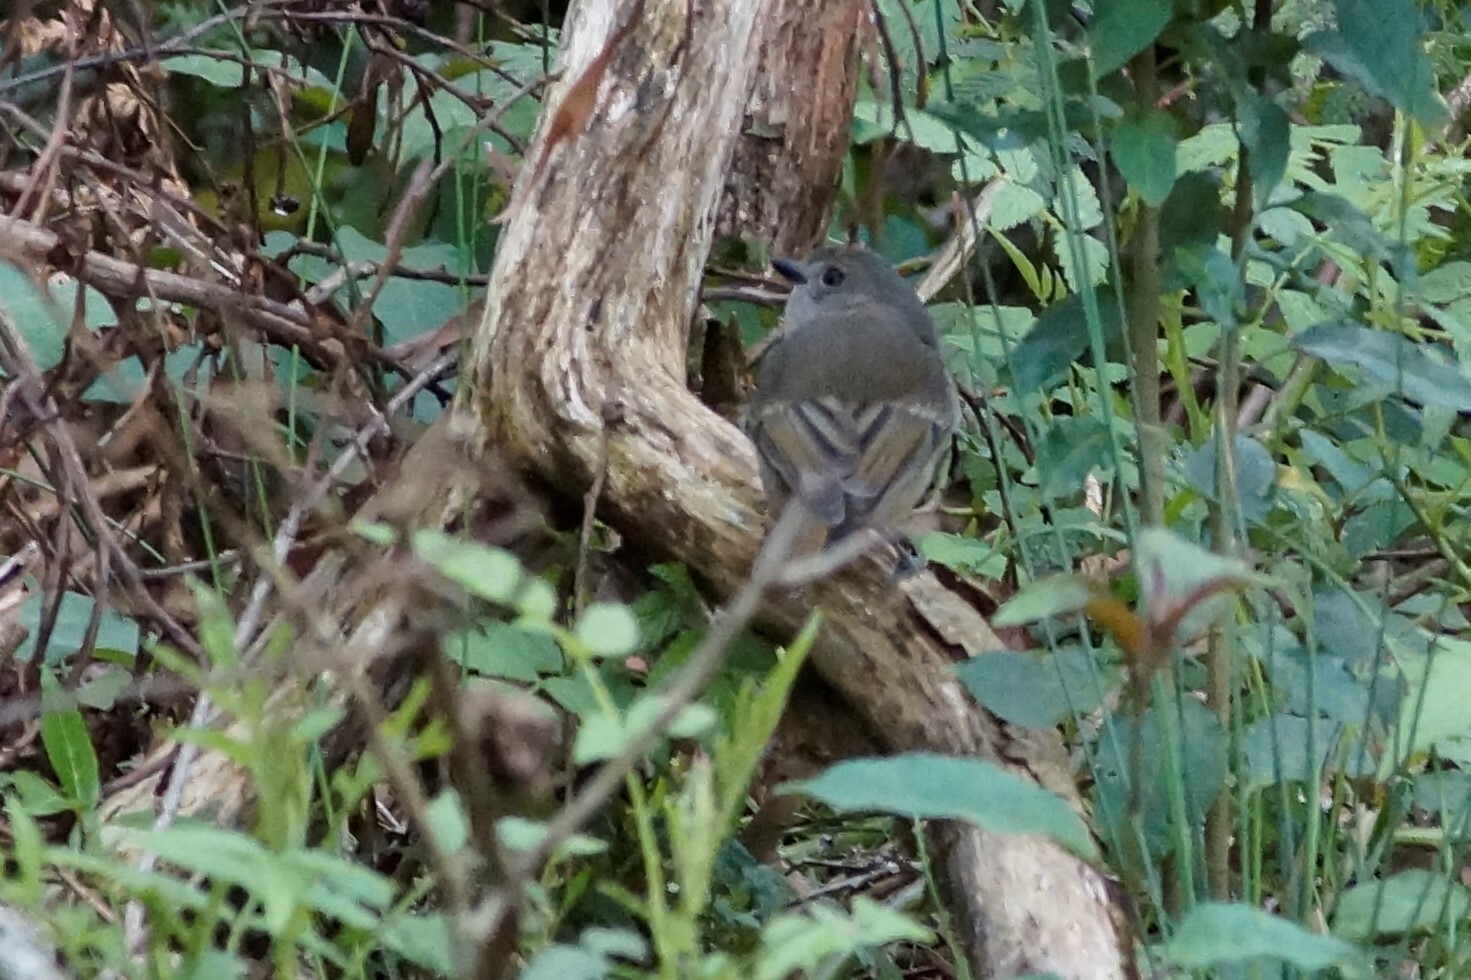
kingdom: Animalia
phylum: Chordata
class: Aves
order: Passeriformes
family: Pachycephalidae
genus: Pachycephala
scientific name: Pachycephala pectoralis
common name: Australian golden whistler
